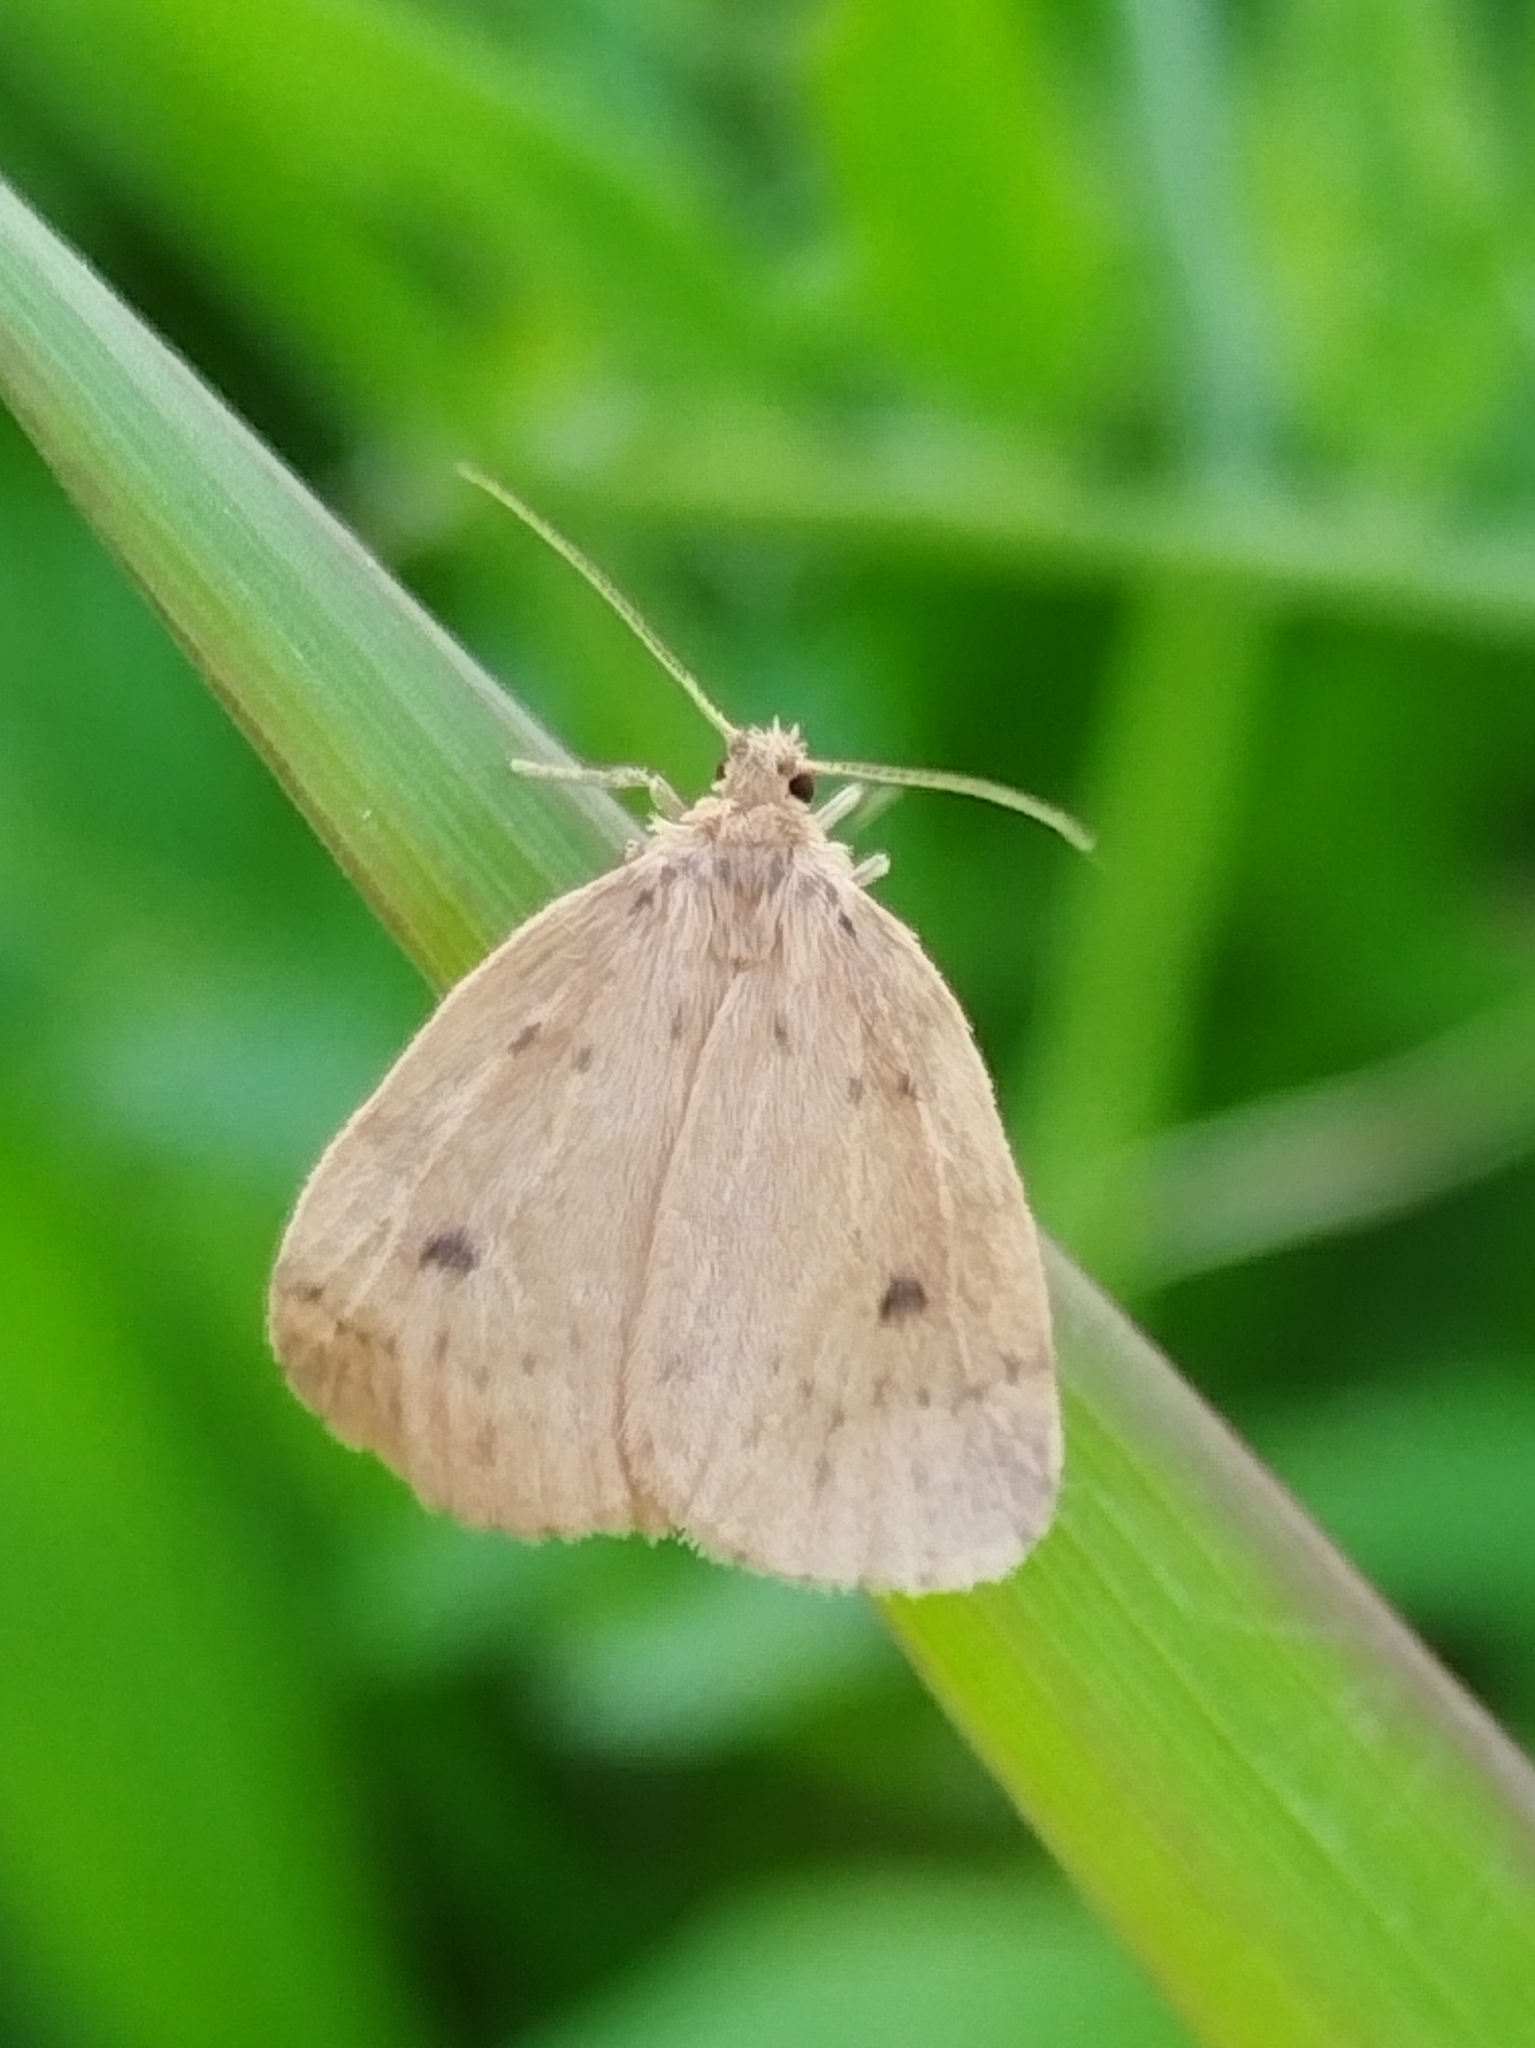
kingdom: Animalia
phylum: Arthropoda
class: Insecta
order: Lepidoptera
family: Erebidae
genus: Thumatha
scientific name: Thumatha senex
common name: Round-winged muslin
